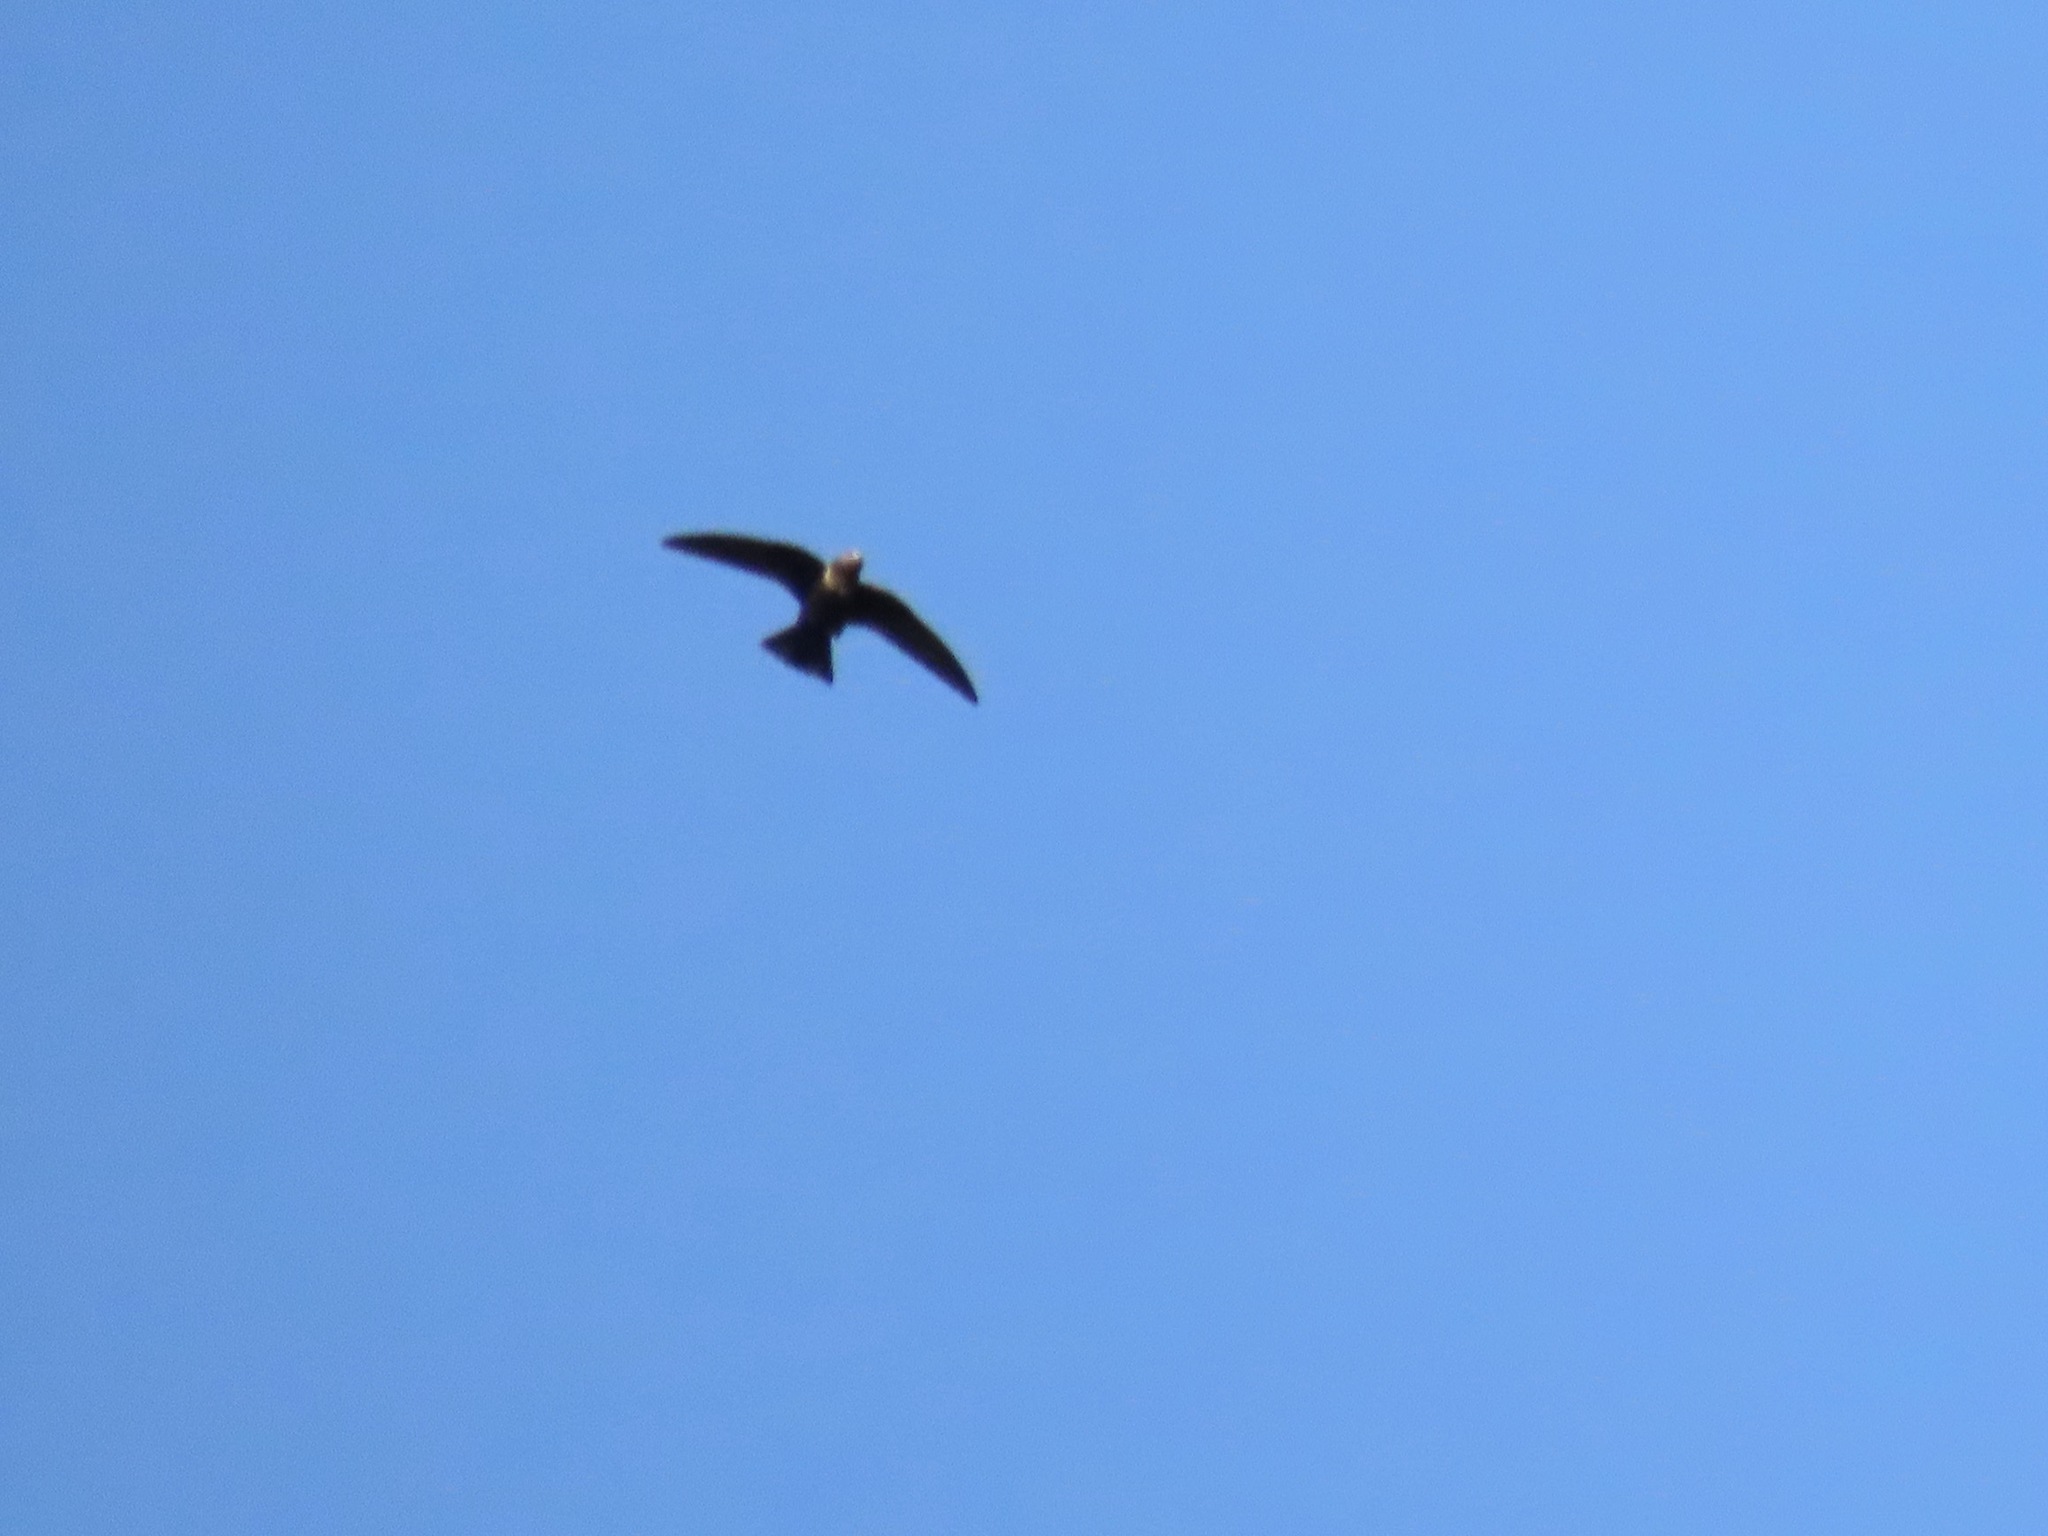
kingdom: Animalia
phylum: Chordata
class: Aves
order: Apodiformes
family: Apodidae
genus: Chaetura
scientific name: Chaetura vauxi
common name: Vaux's swift
